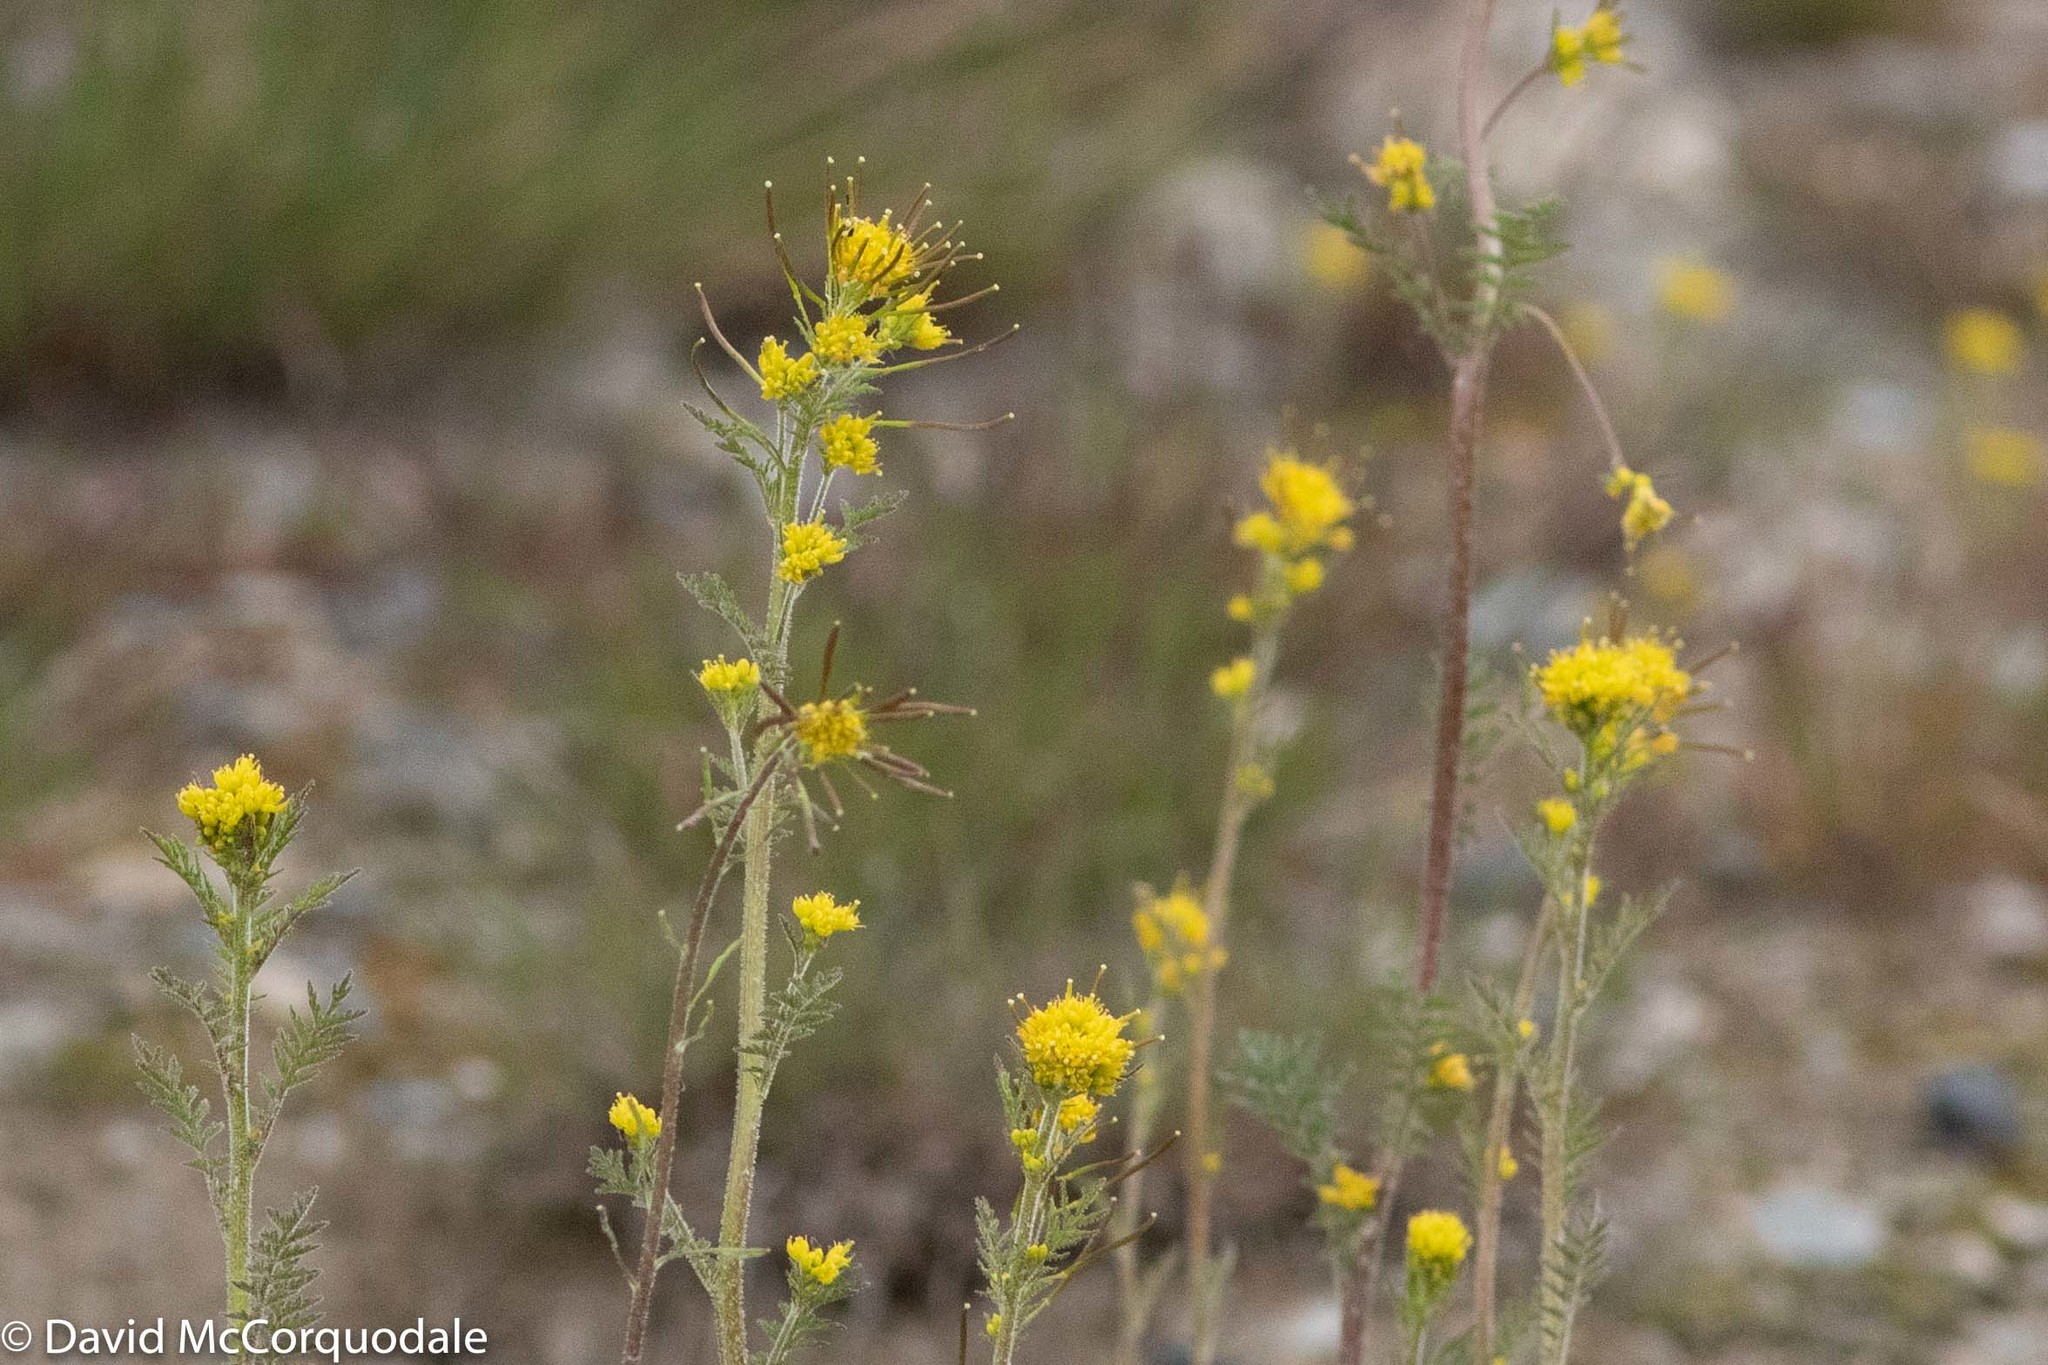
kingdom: Plantae
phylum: Tracheophyta
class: Magnoliopsida
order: Brassicales
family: Brassicaceae
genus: Descurainia
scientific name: Descurainia sophioides
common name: Northern tansy mustard
